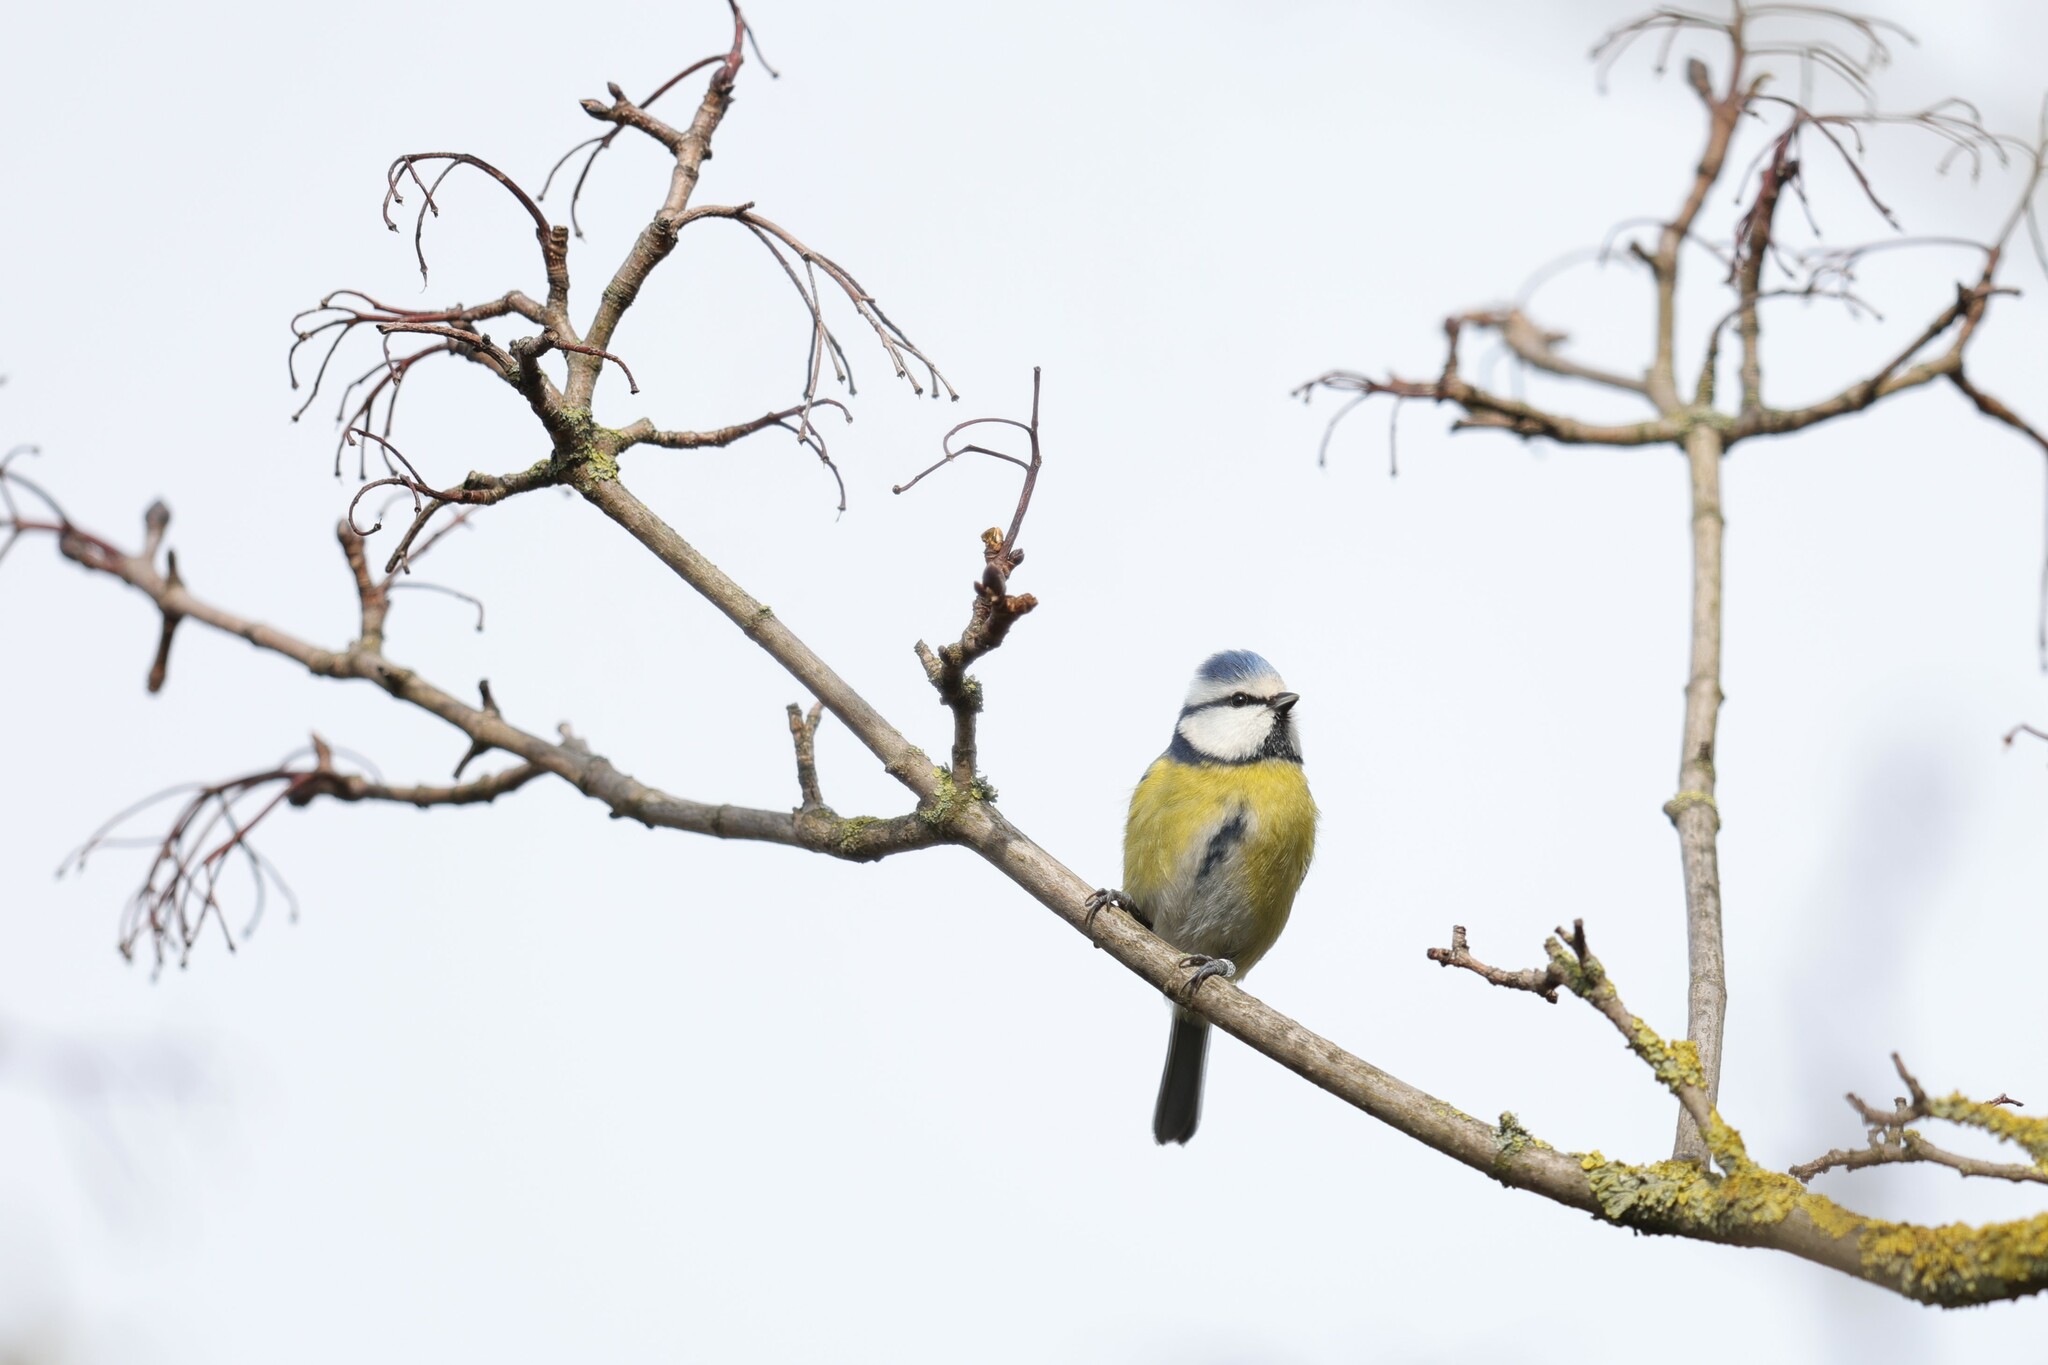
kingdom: Animalia
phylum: Chordata
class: Aves
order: Passeriformes
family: Paridae
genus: Cyanistes
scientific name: Cyanistes caeruleus
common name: Eurasian blue tit
